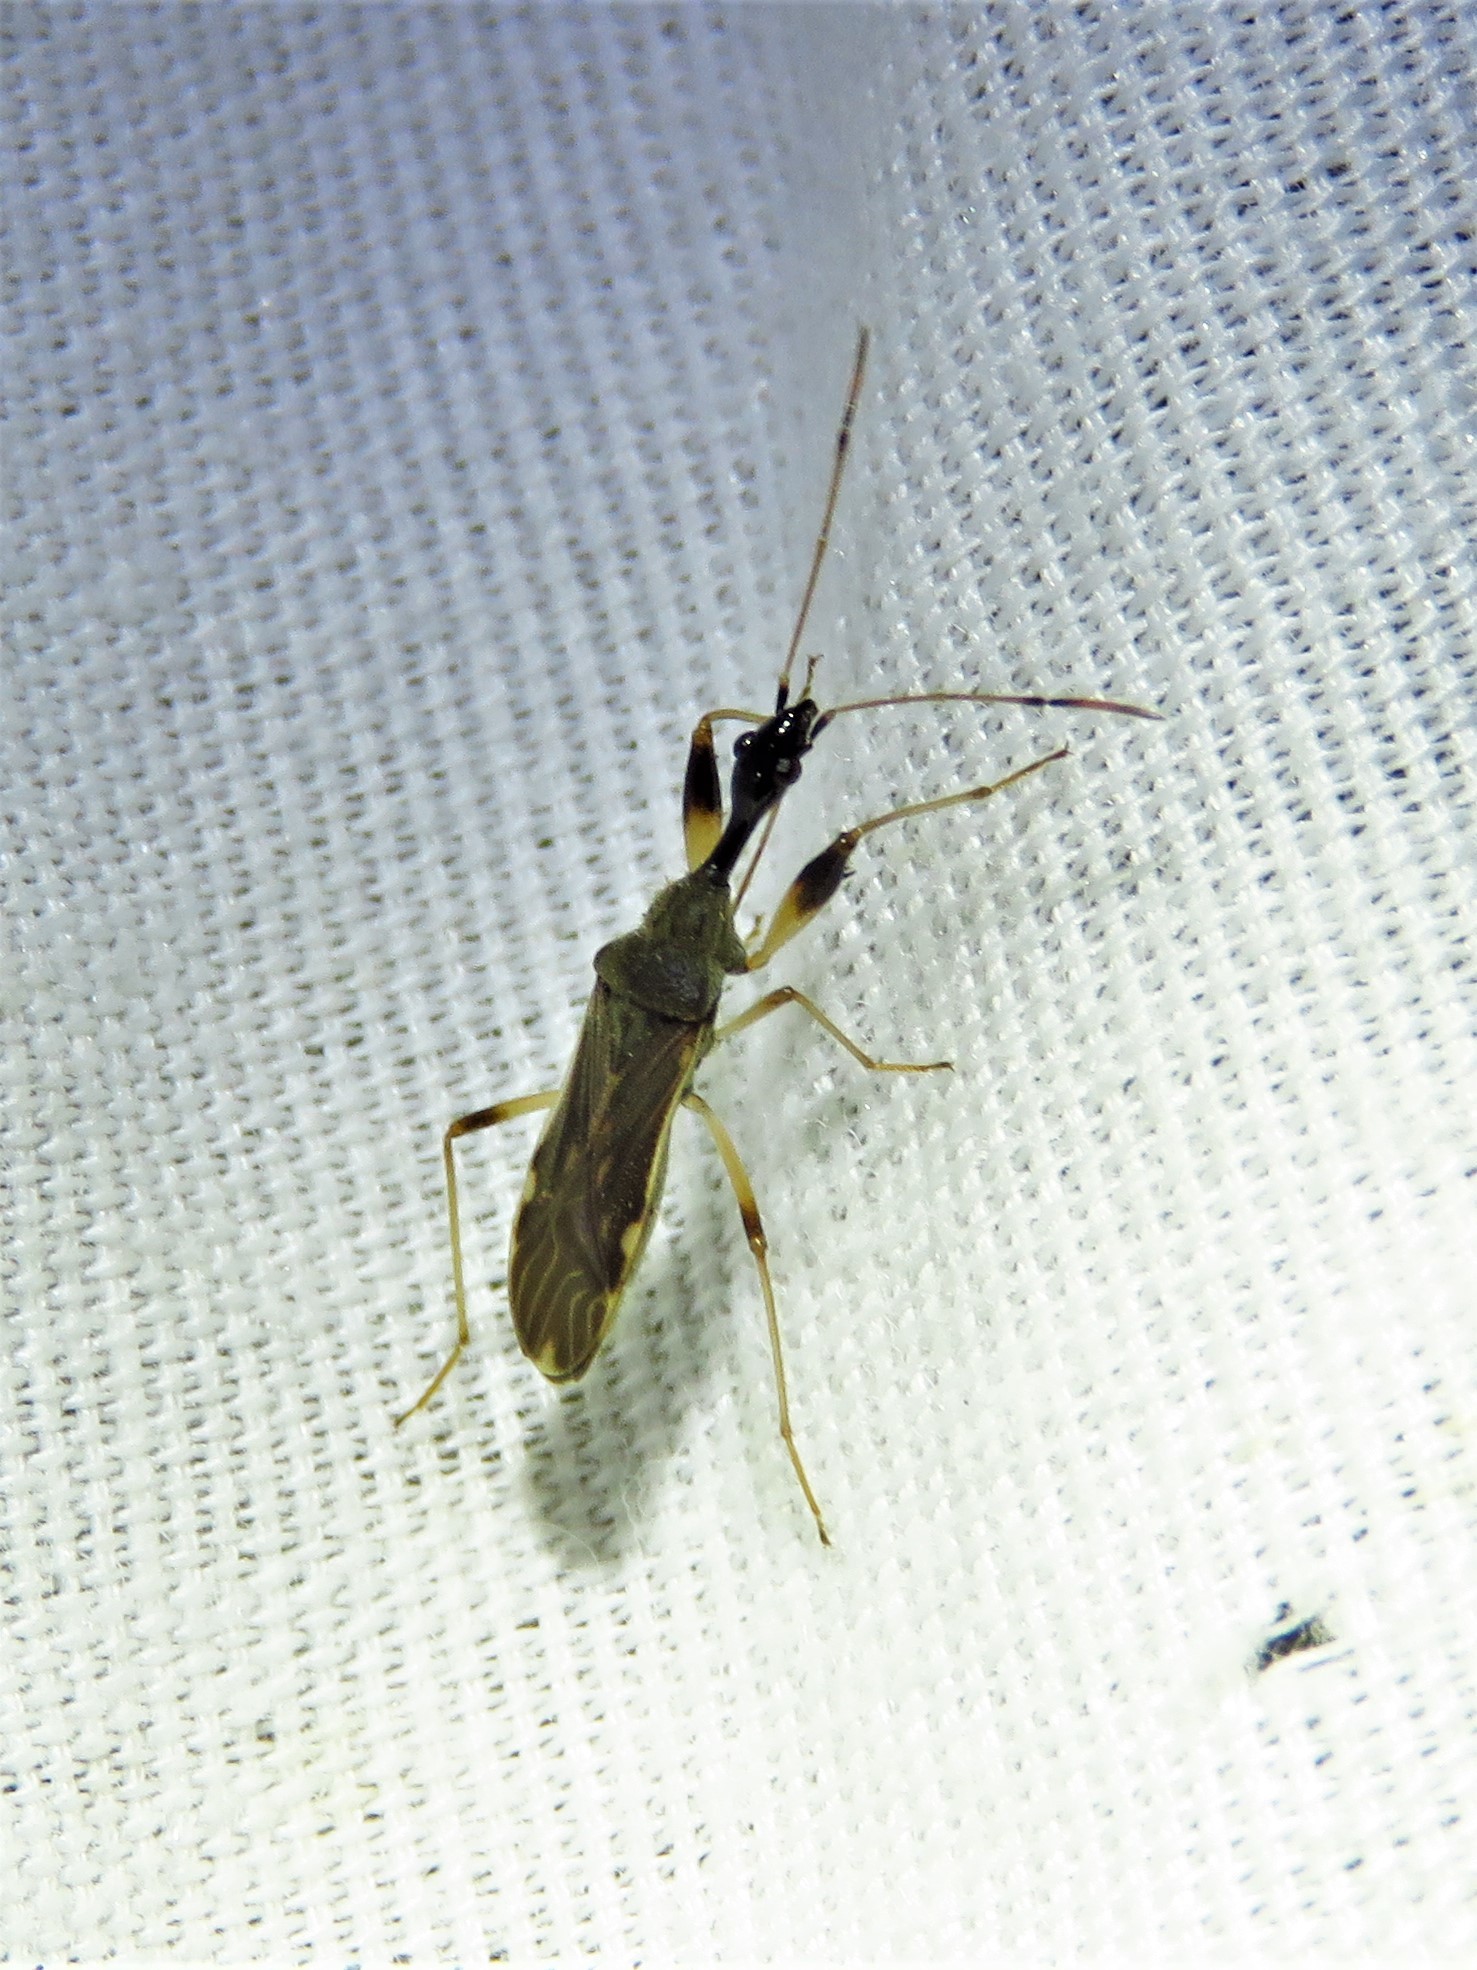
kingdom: Animalia
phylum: Arthropoda
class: Insecta
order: Hemiptera
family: Rhyparochromidae
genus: Myodocha
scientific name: Myodocha serripes
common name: Long-necked seed bug
